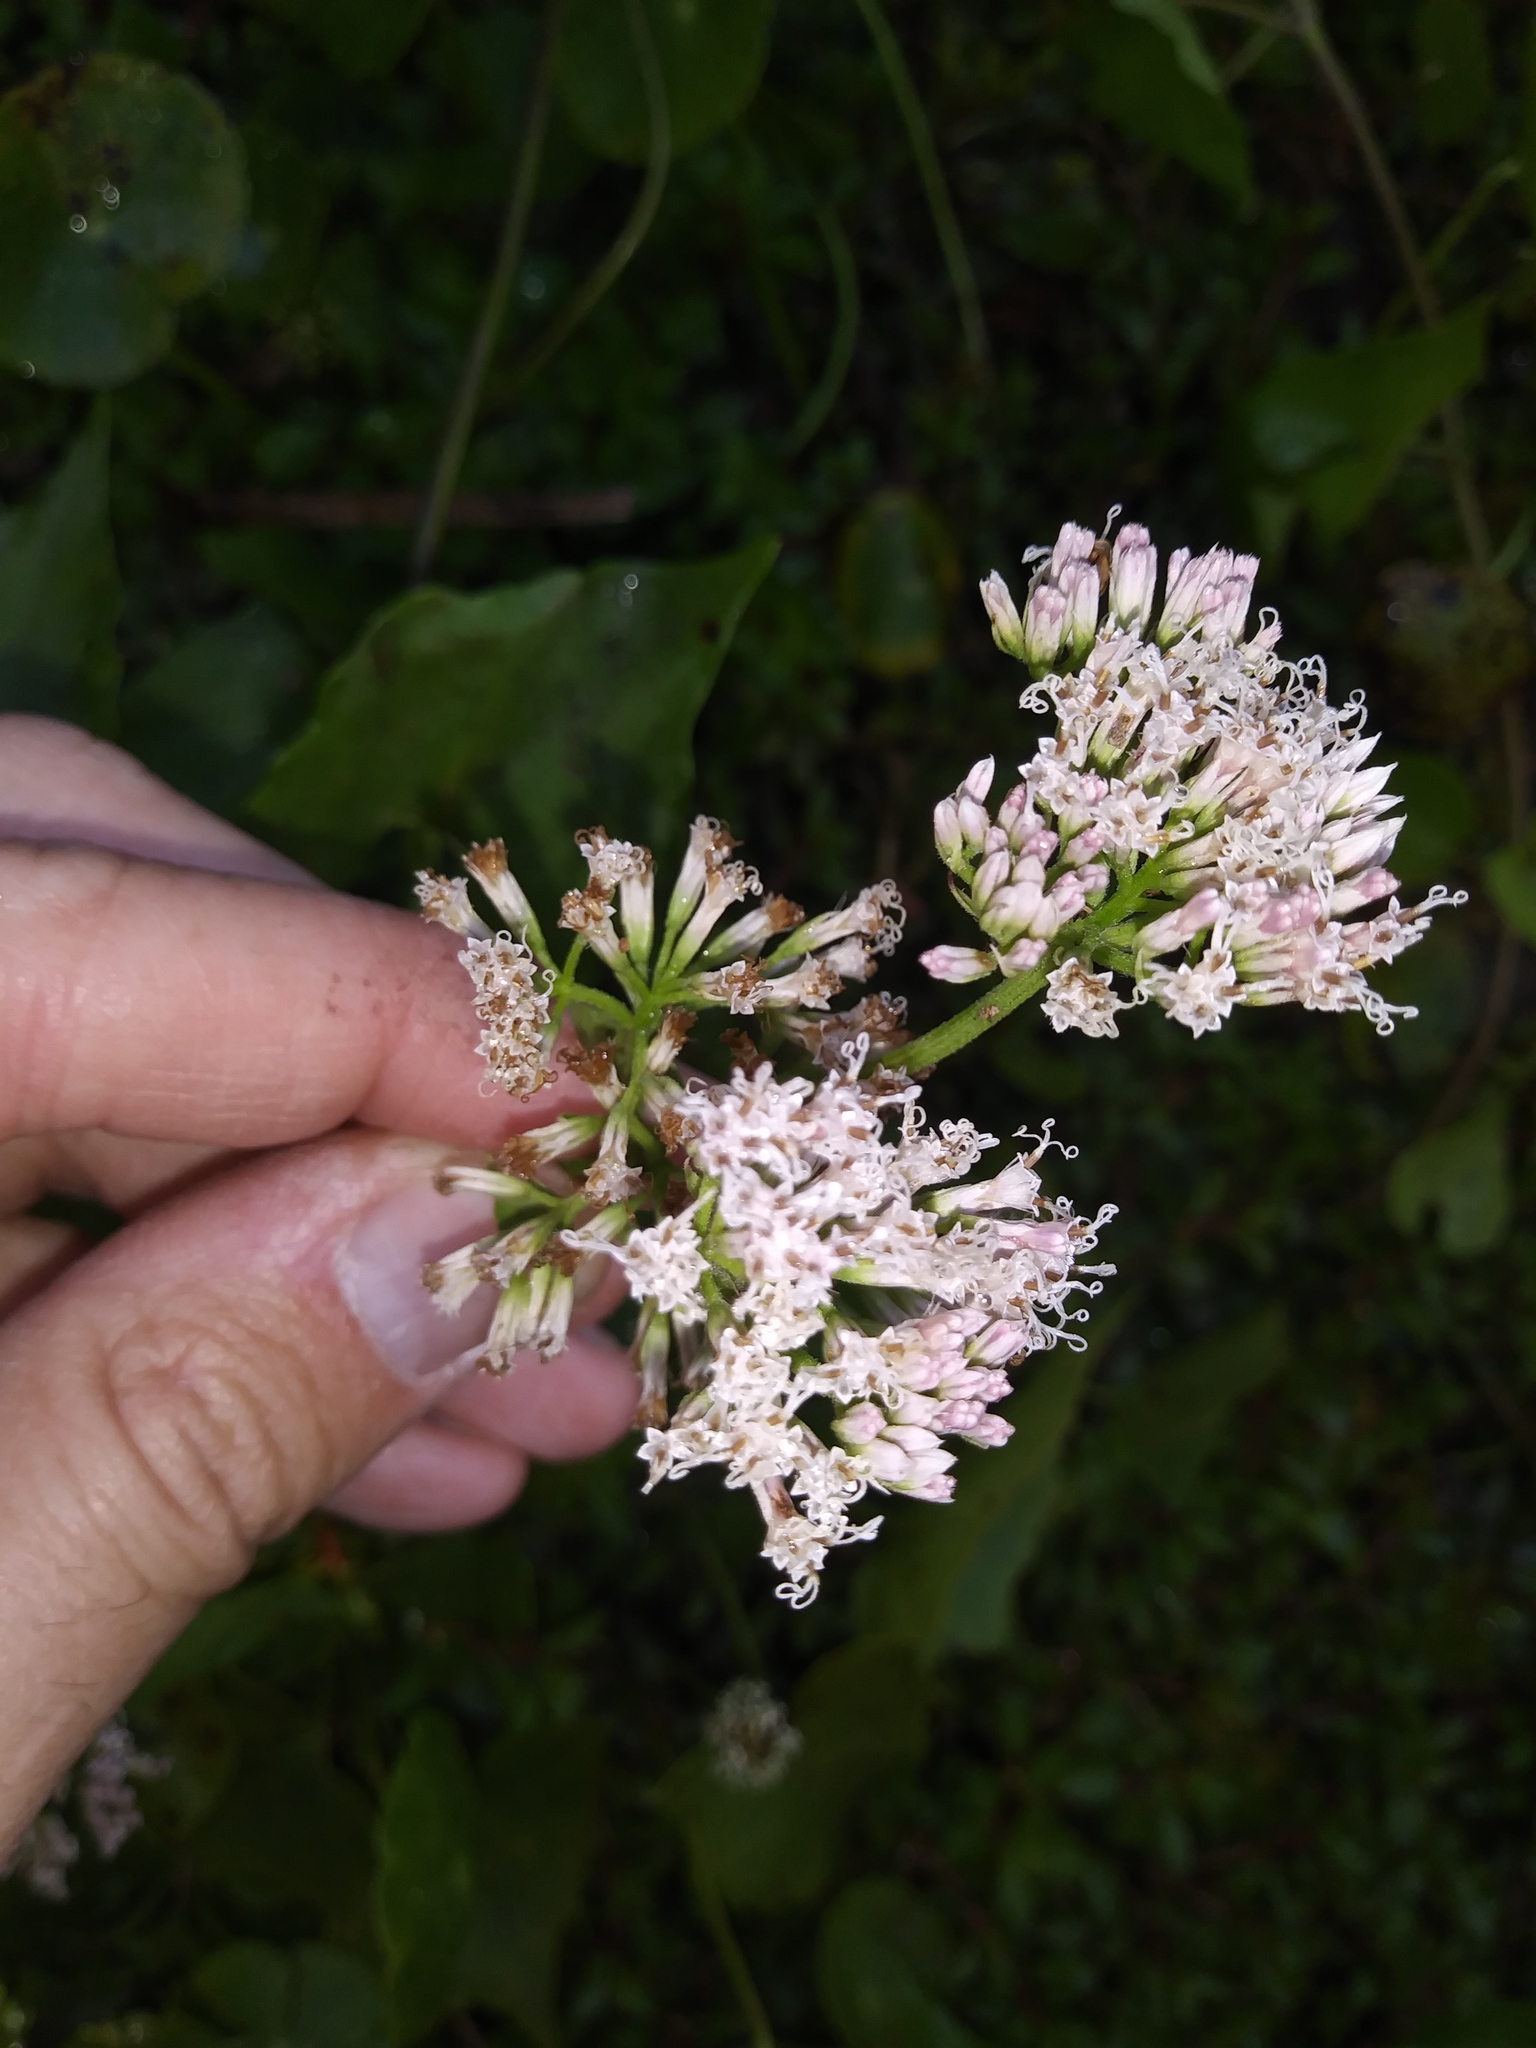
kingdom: Plantae
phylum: Tracheophyta
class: Magnoliopsida
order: Asterales
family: Asteraceae
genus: Mikania
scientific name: Mikania scandens
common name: Climbing hempvine
